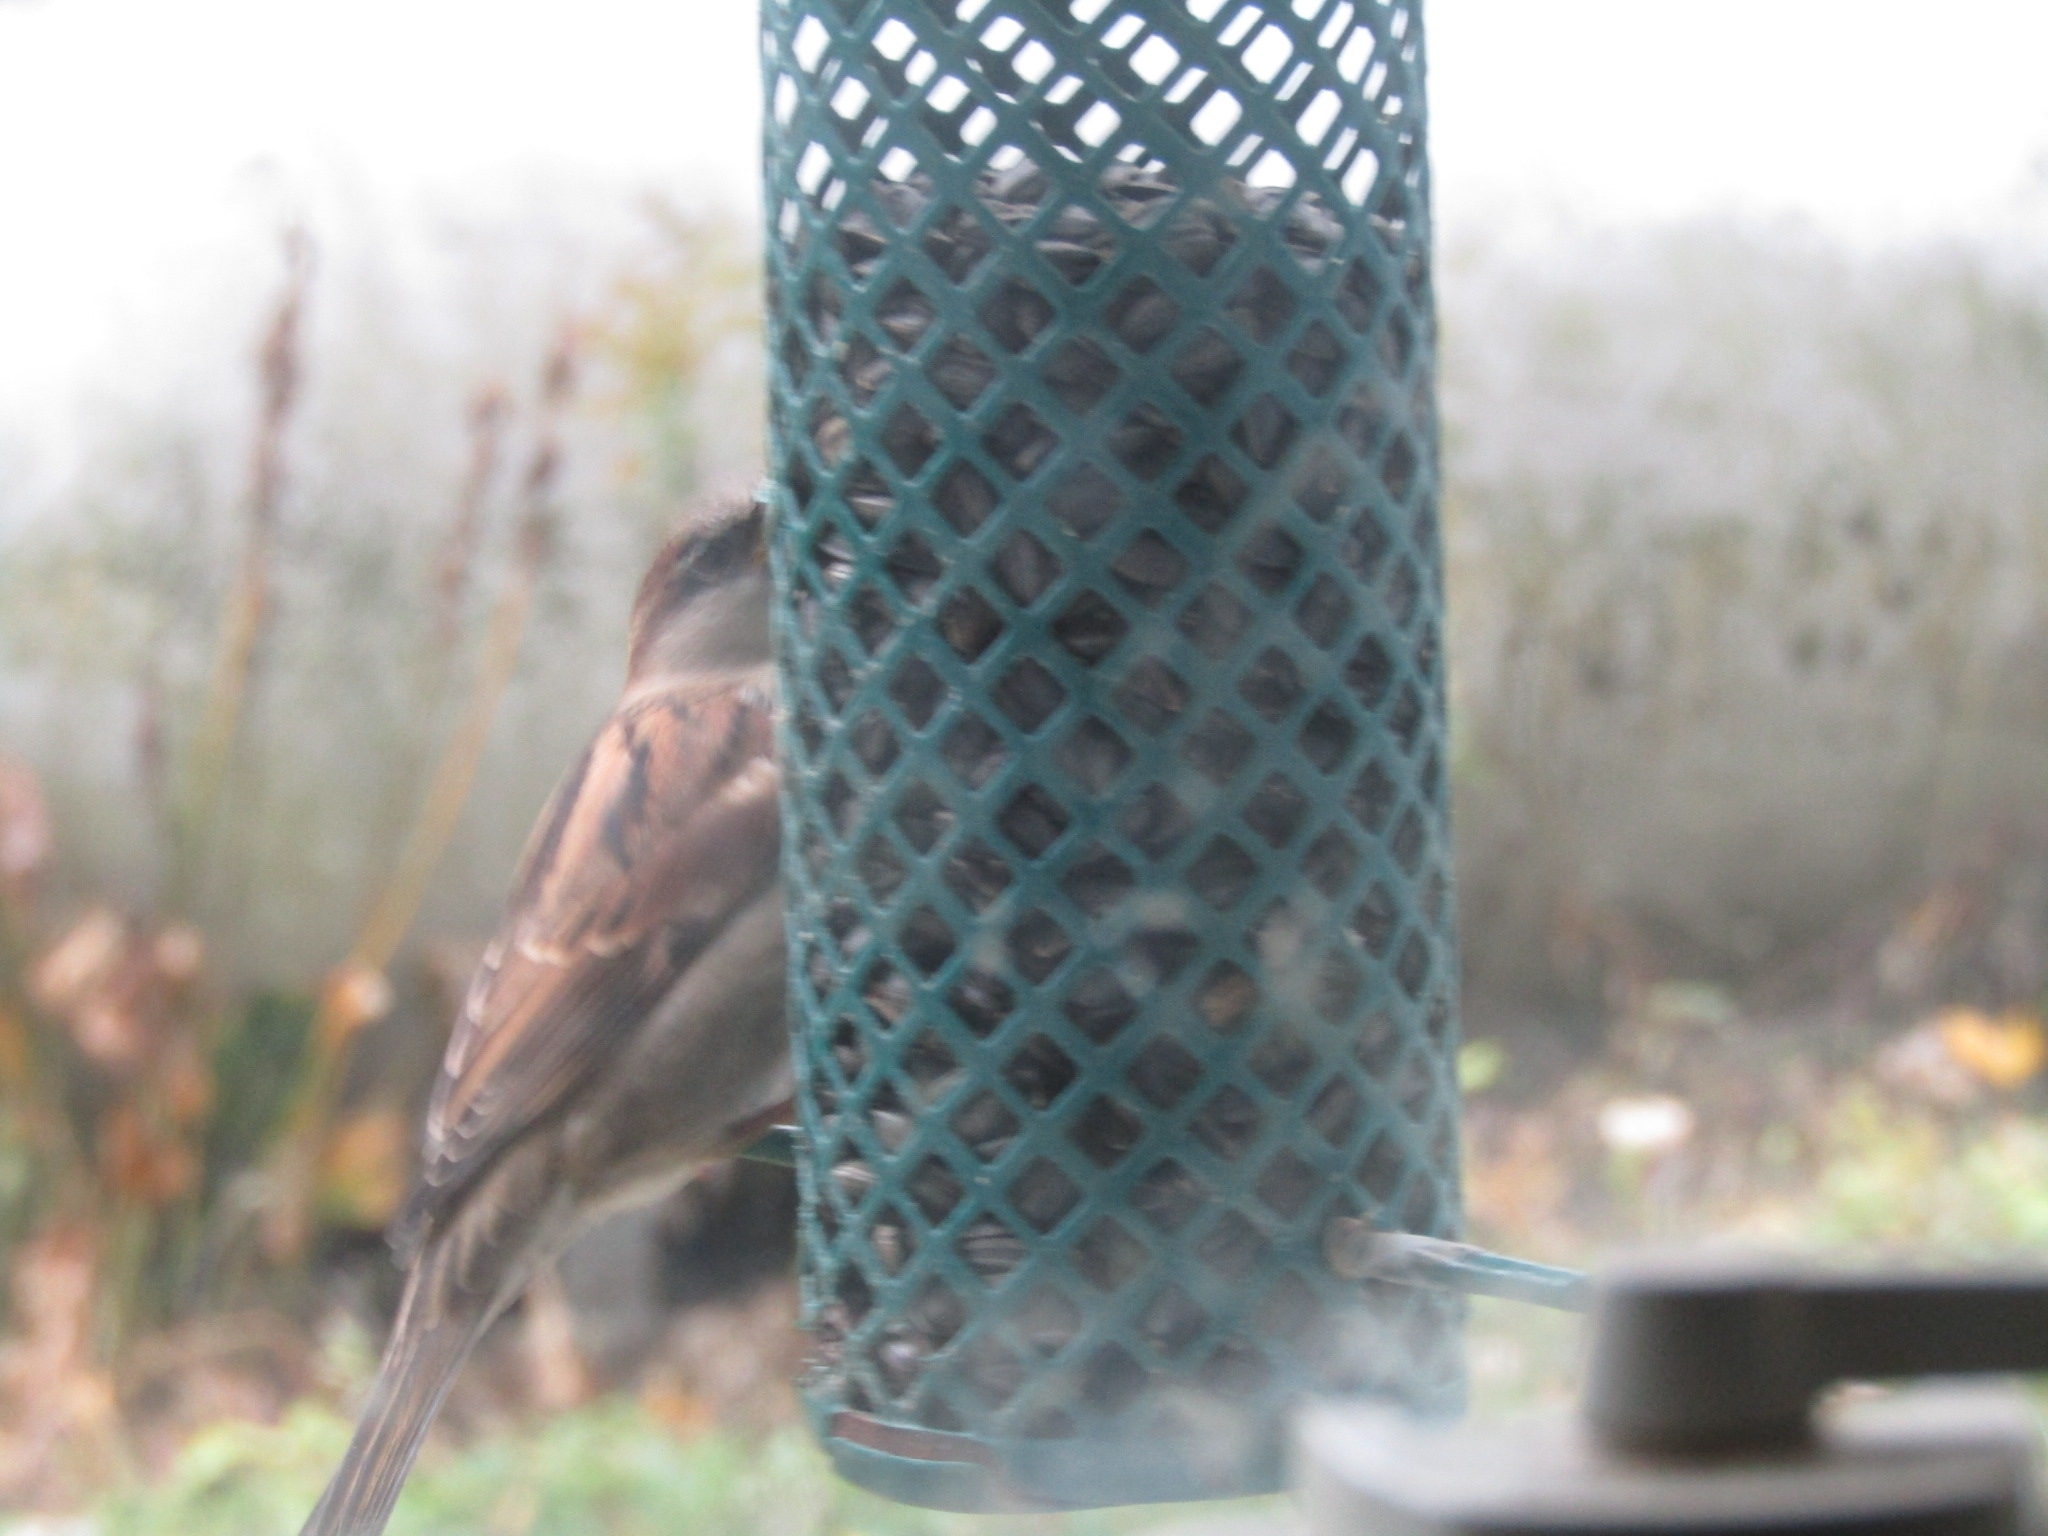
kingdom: Animalia
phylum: Chordata
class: Aves
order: Passeriformes
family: Passeridae
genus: Passer
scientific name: Passer domesticus
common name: House sparrow
